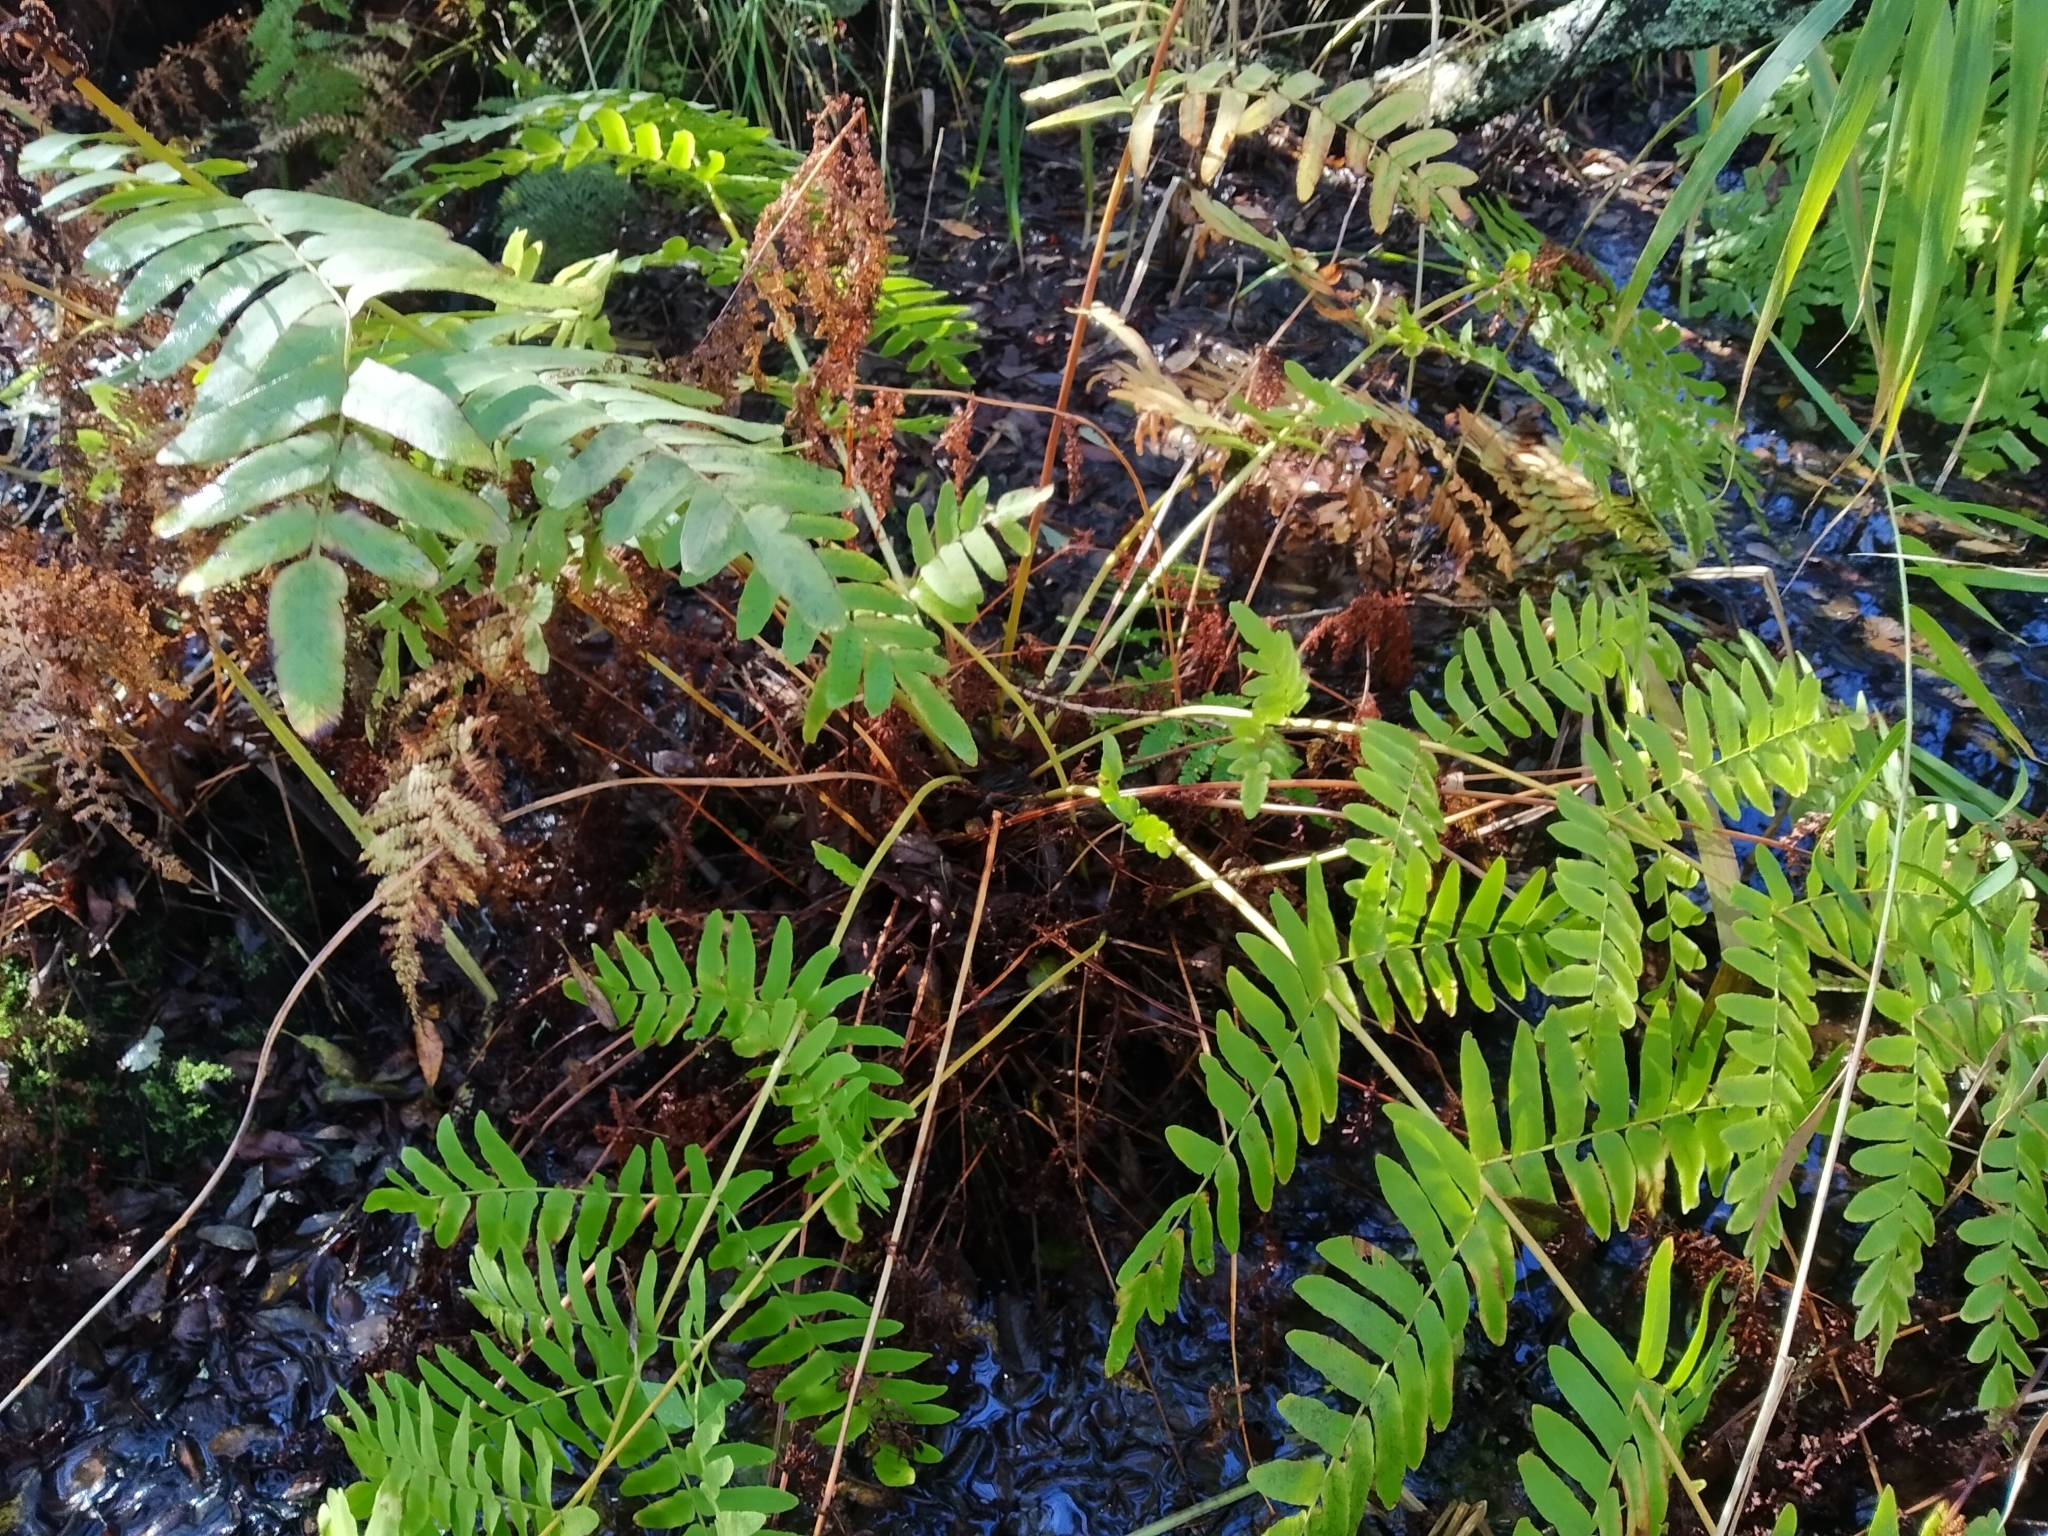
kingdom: Plantae
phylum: Tracheophyta
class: Polypodiopsida
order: Osmundales
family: Osmundaceae
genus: Osmunda
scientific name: Osmunda regalis
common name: Royal fern
